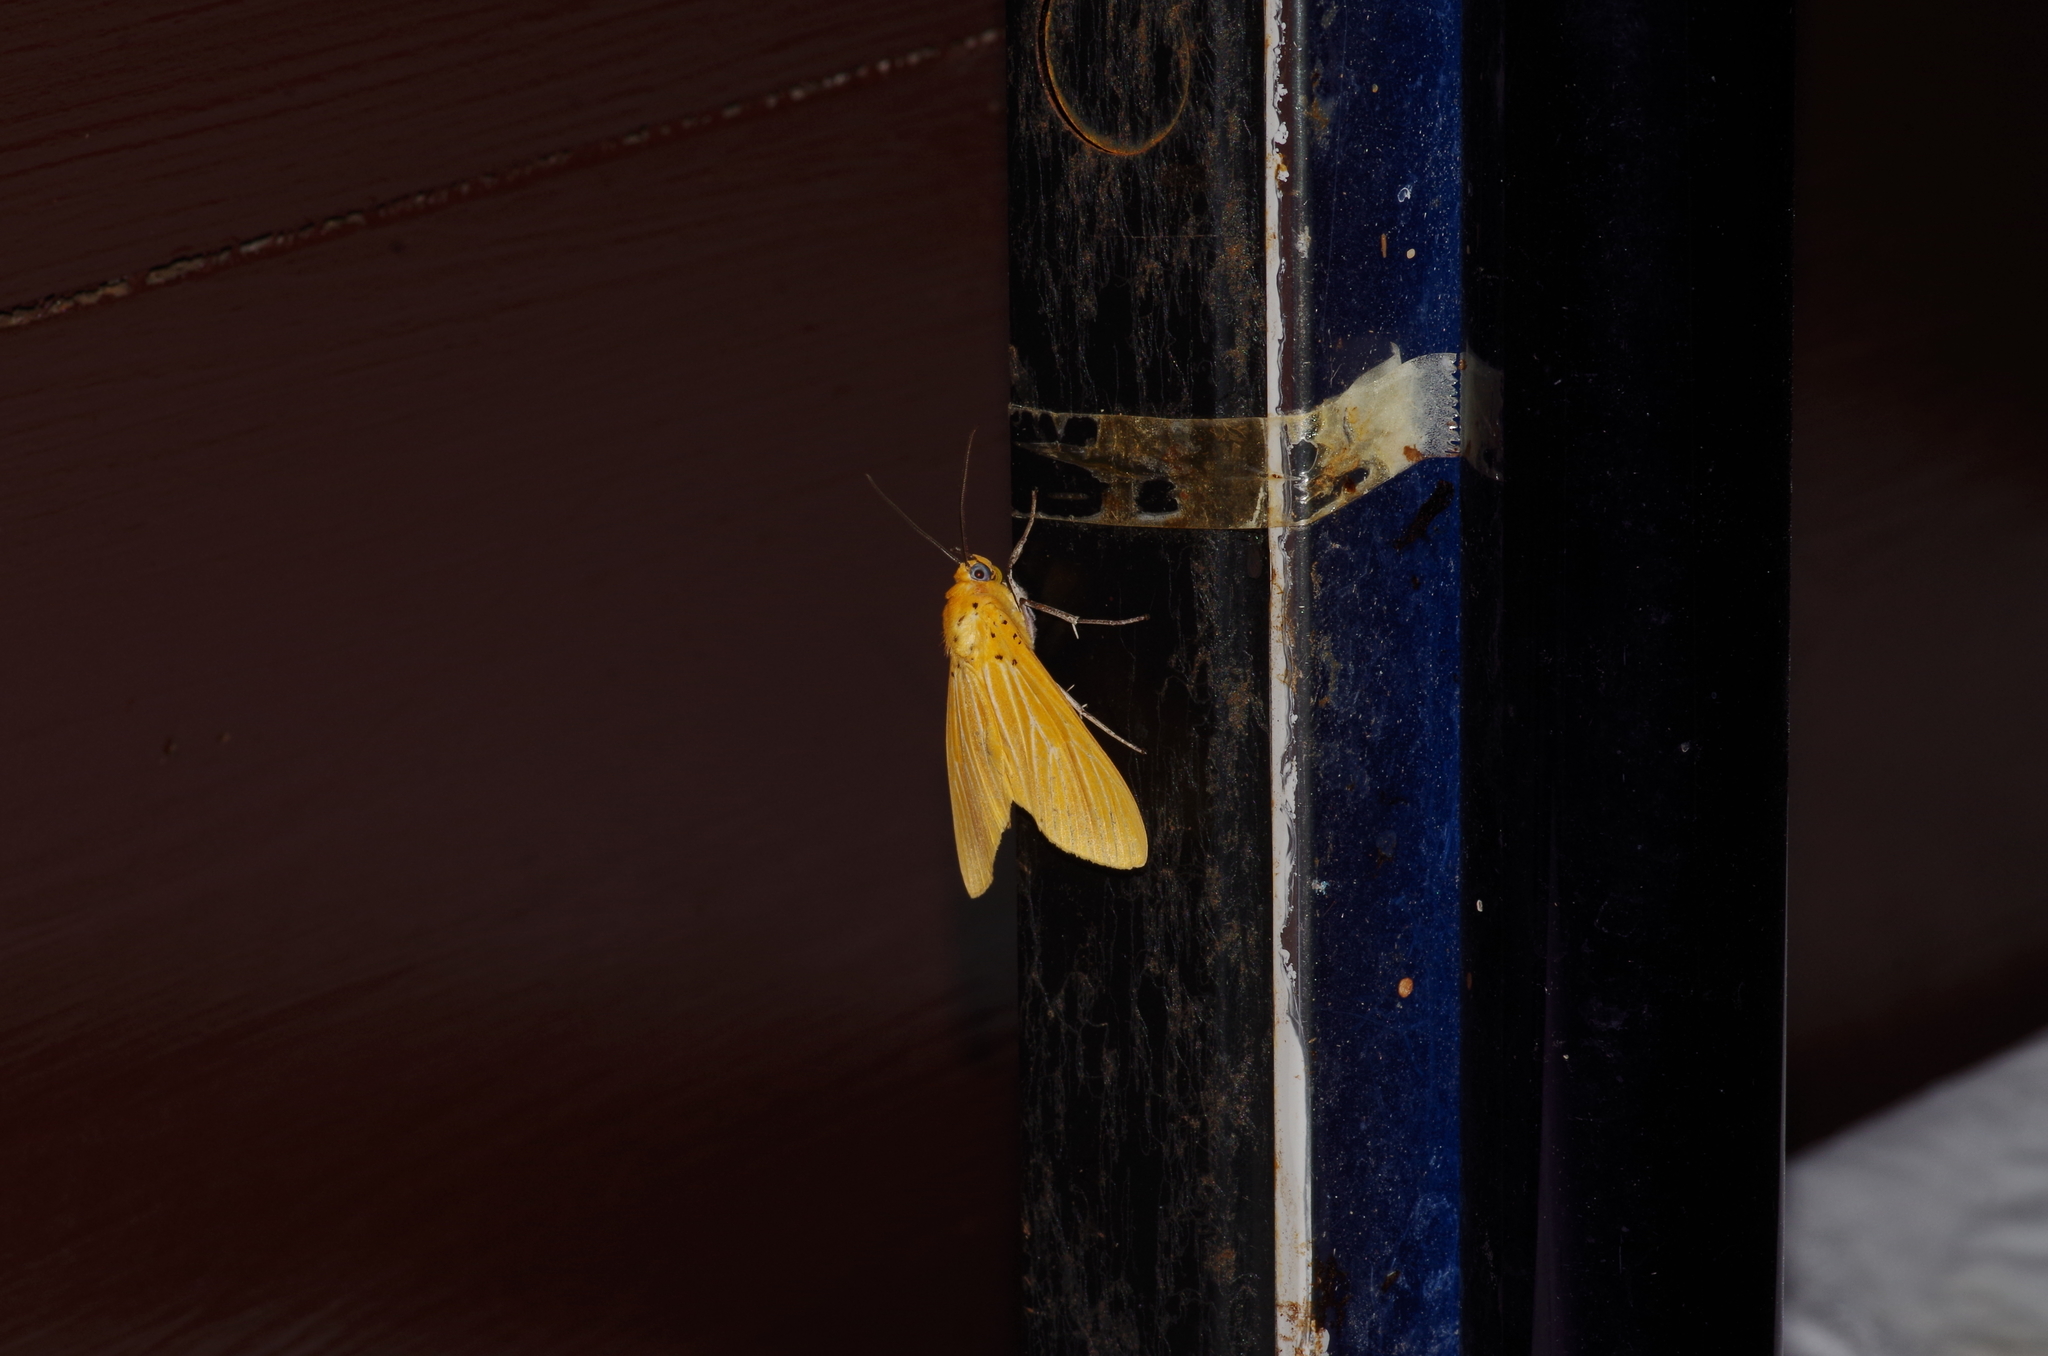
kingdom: Animalia
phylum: Arthropoda
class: Insecta
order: Lepidoptera
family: Erebidae
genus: Asota
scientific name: Asota egens
